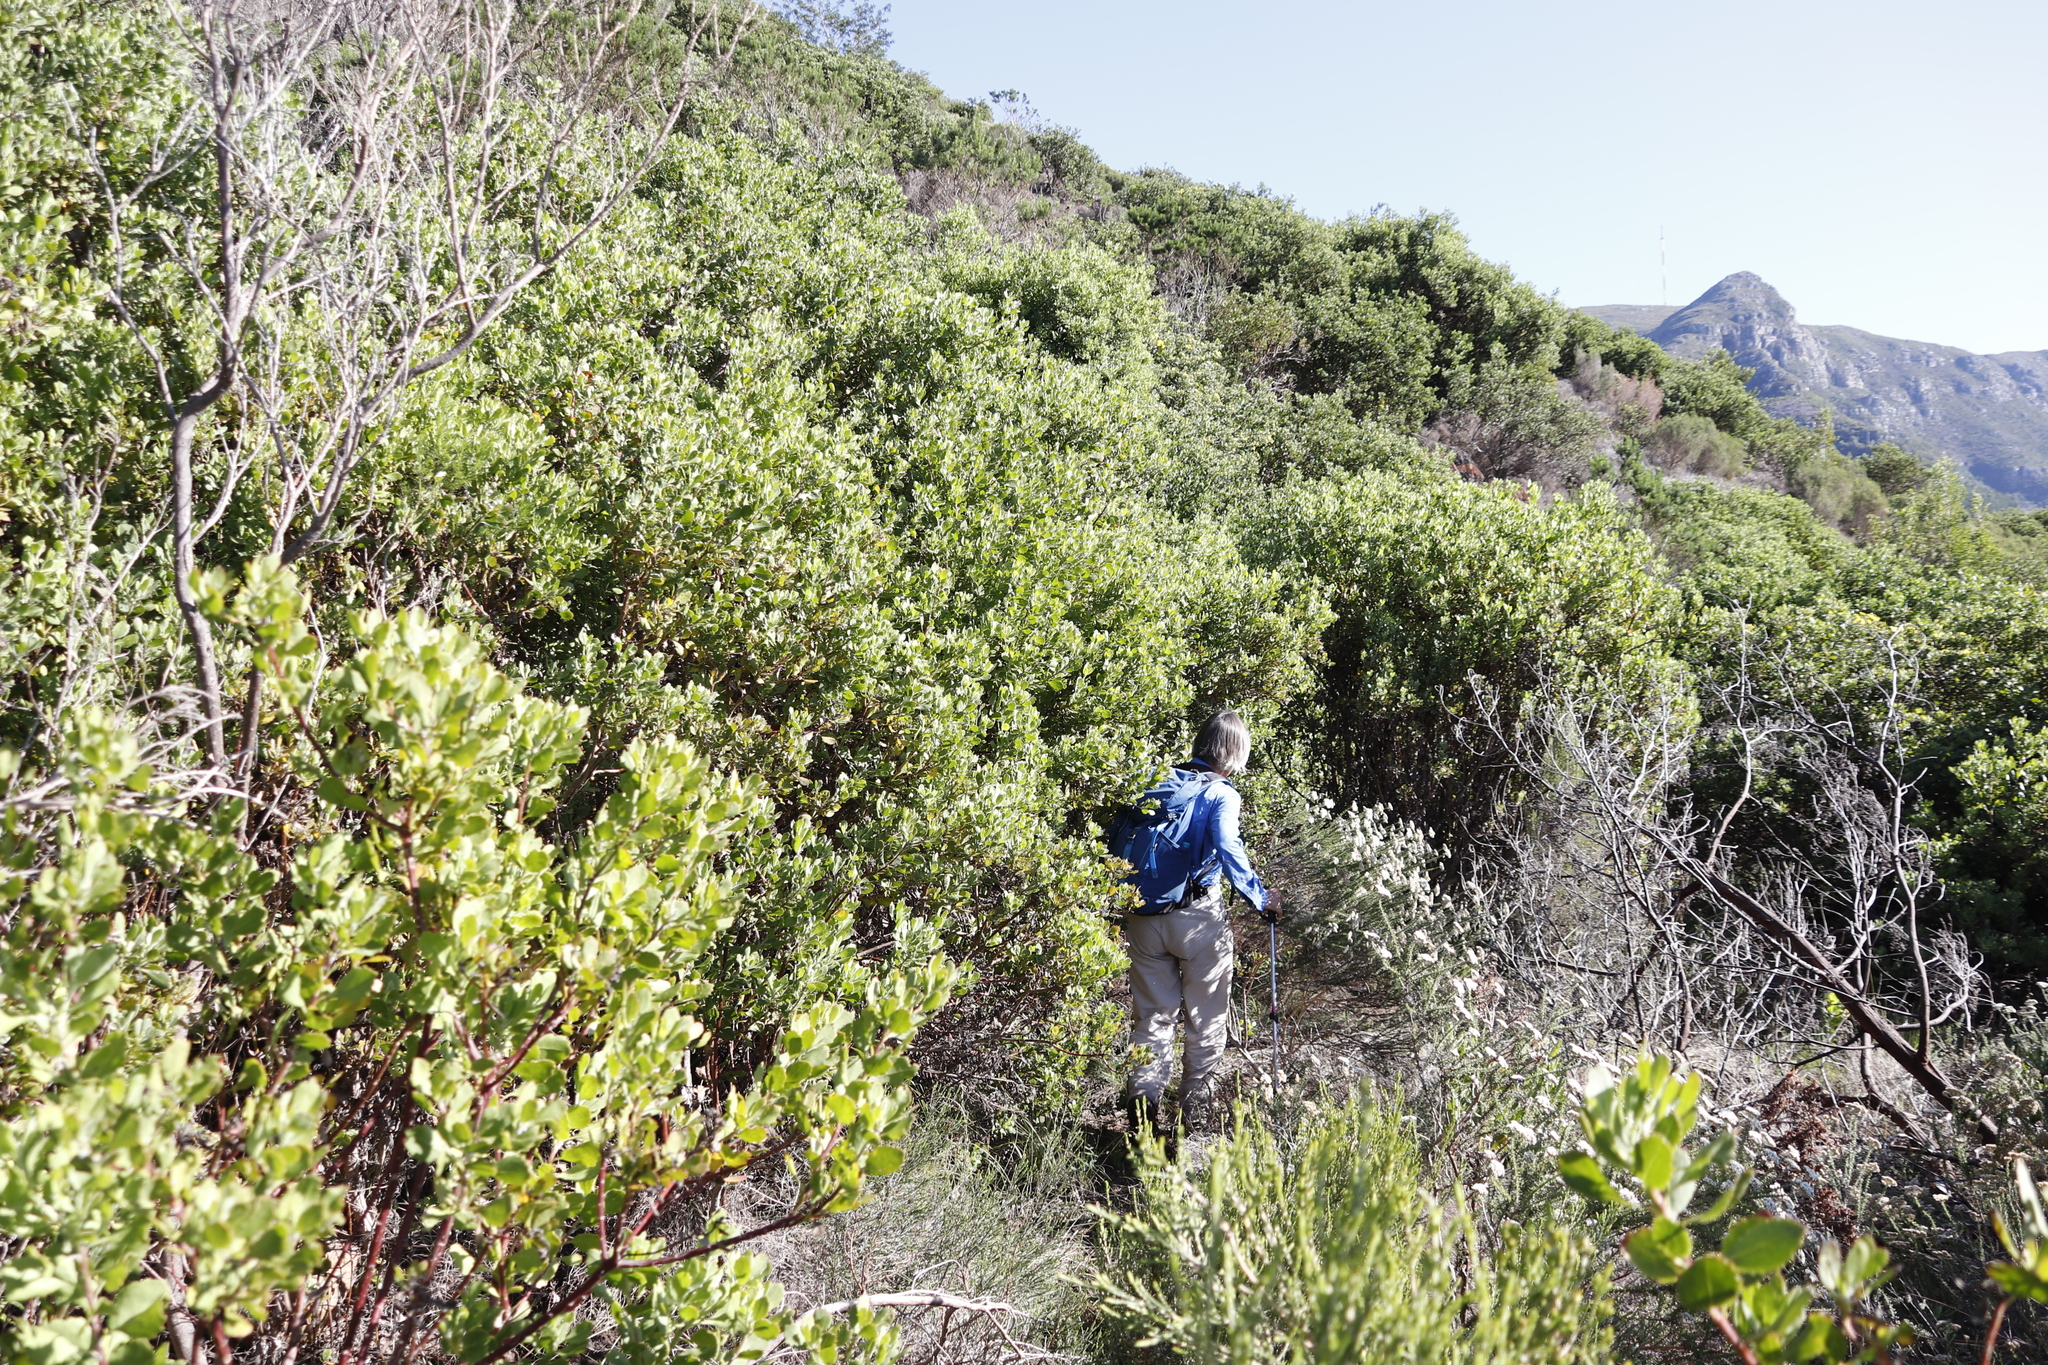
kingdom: Plantae
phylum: Tracheophyta
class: Magnoliopsida
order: Asterales
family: Asteraceae
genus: Osteospermum
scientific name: Osteospermum moniliferum
